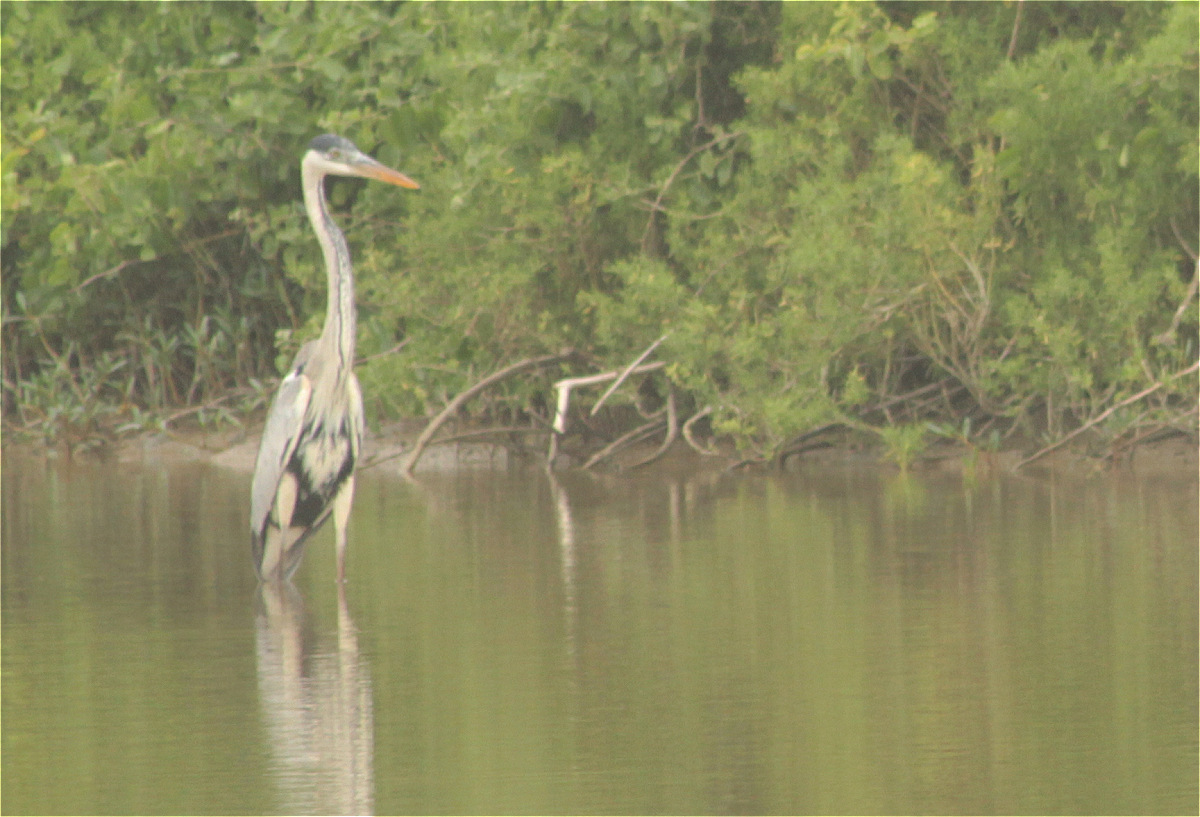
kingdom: Animalia
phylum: Chordata
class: Aves
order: Pelecaniformes
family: Ardeidae
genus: Ardea
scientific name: Ardea cocoi
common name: Cocoi heron
